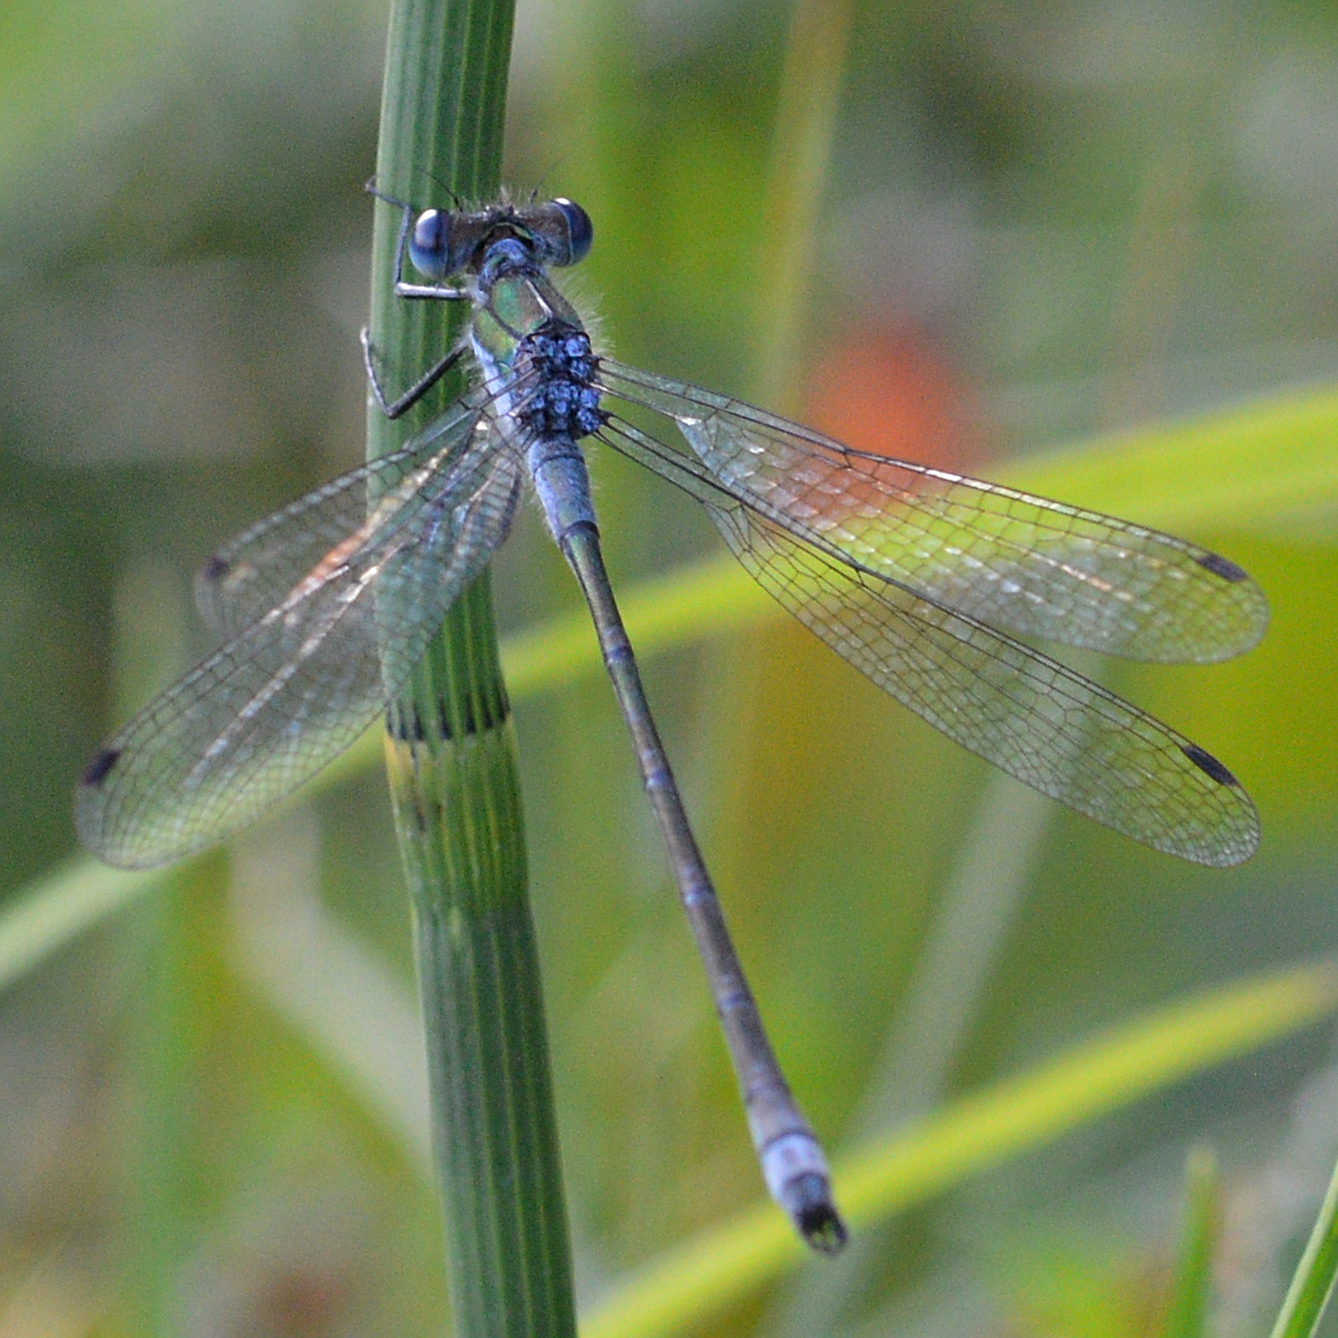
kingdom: Animalia
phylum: Arthropoda
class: Insecta
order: Odonata
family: Lestidae
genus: Lestes
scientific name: Lestes sponsa
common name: Common spreadwing
